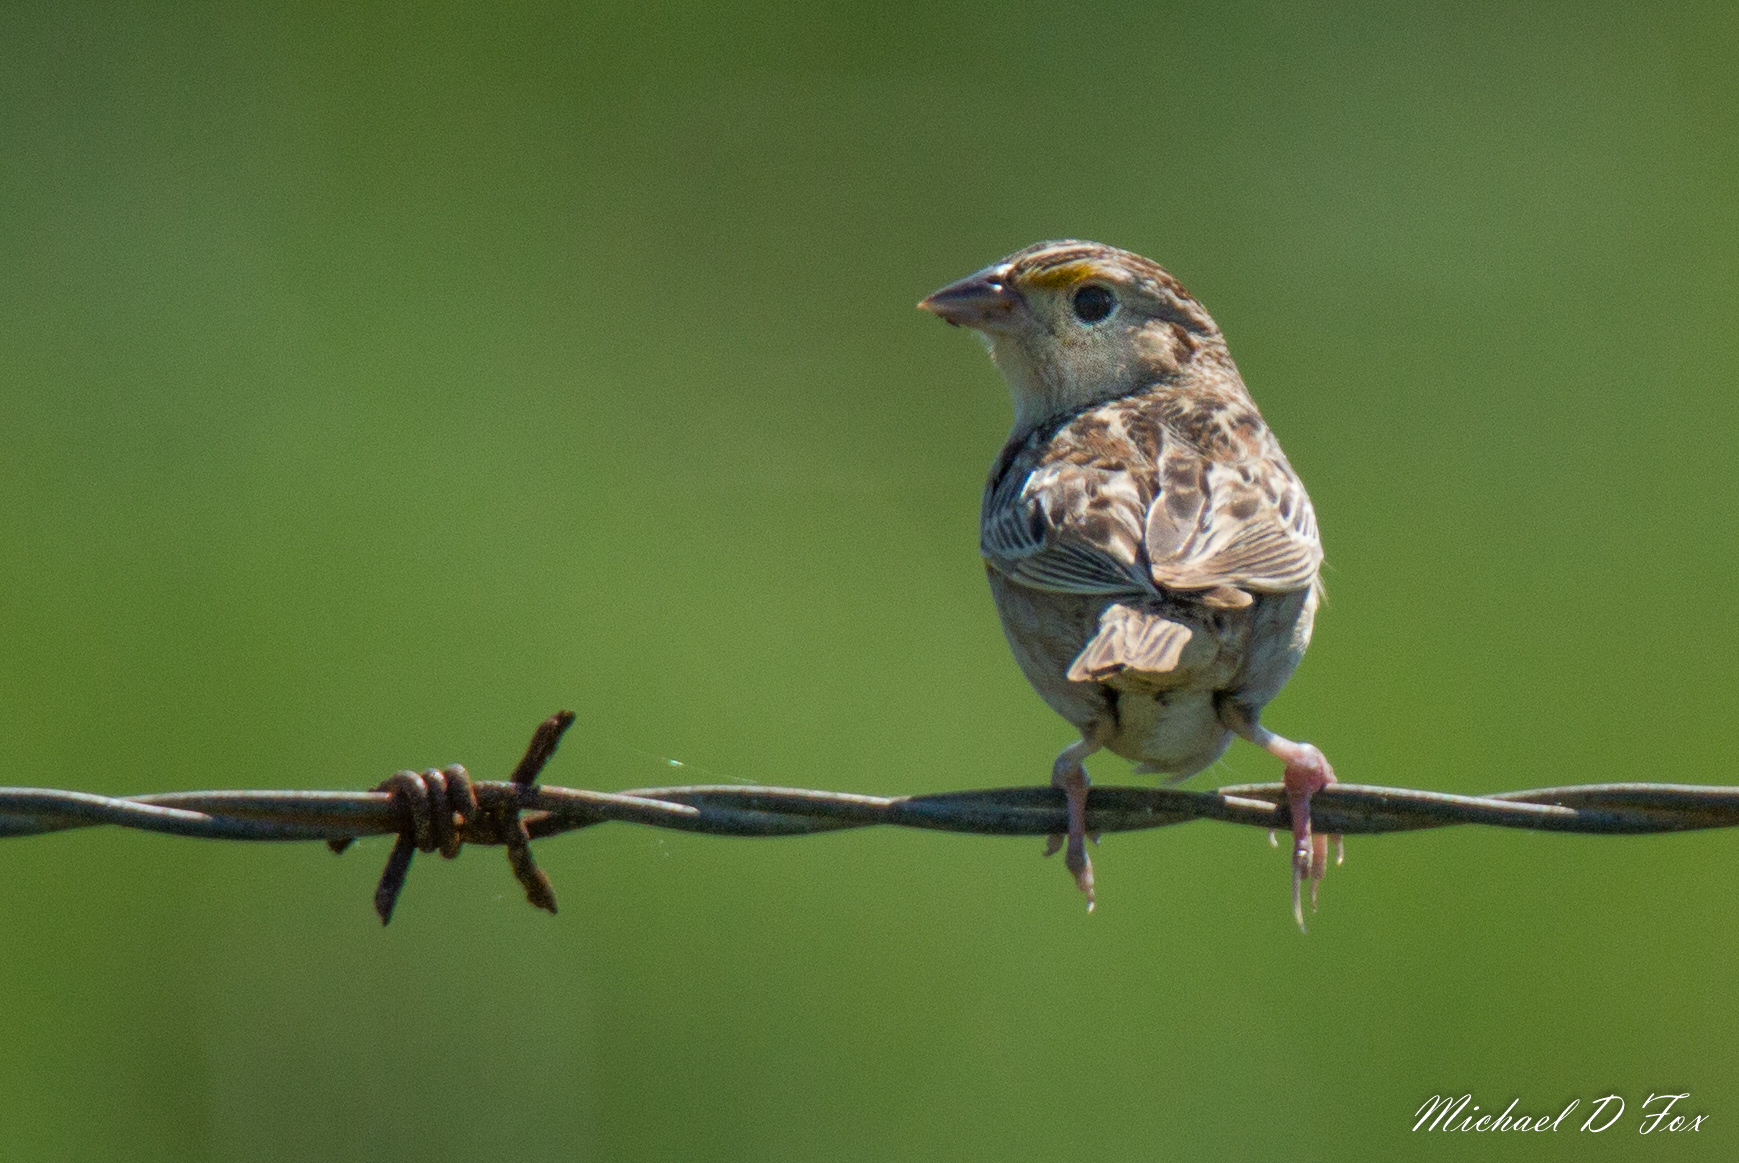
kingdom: Animalia
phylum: Chordata
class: Aves
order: Passeriformes
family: Passerellidae
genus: Ammodramus
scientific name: Ammodramus savannarum
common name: Grasshopper sparrow
